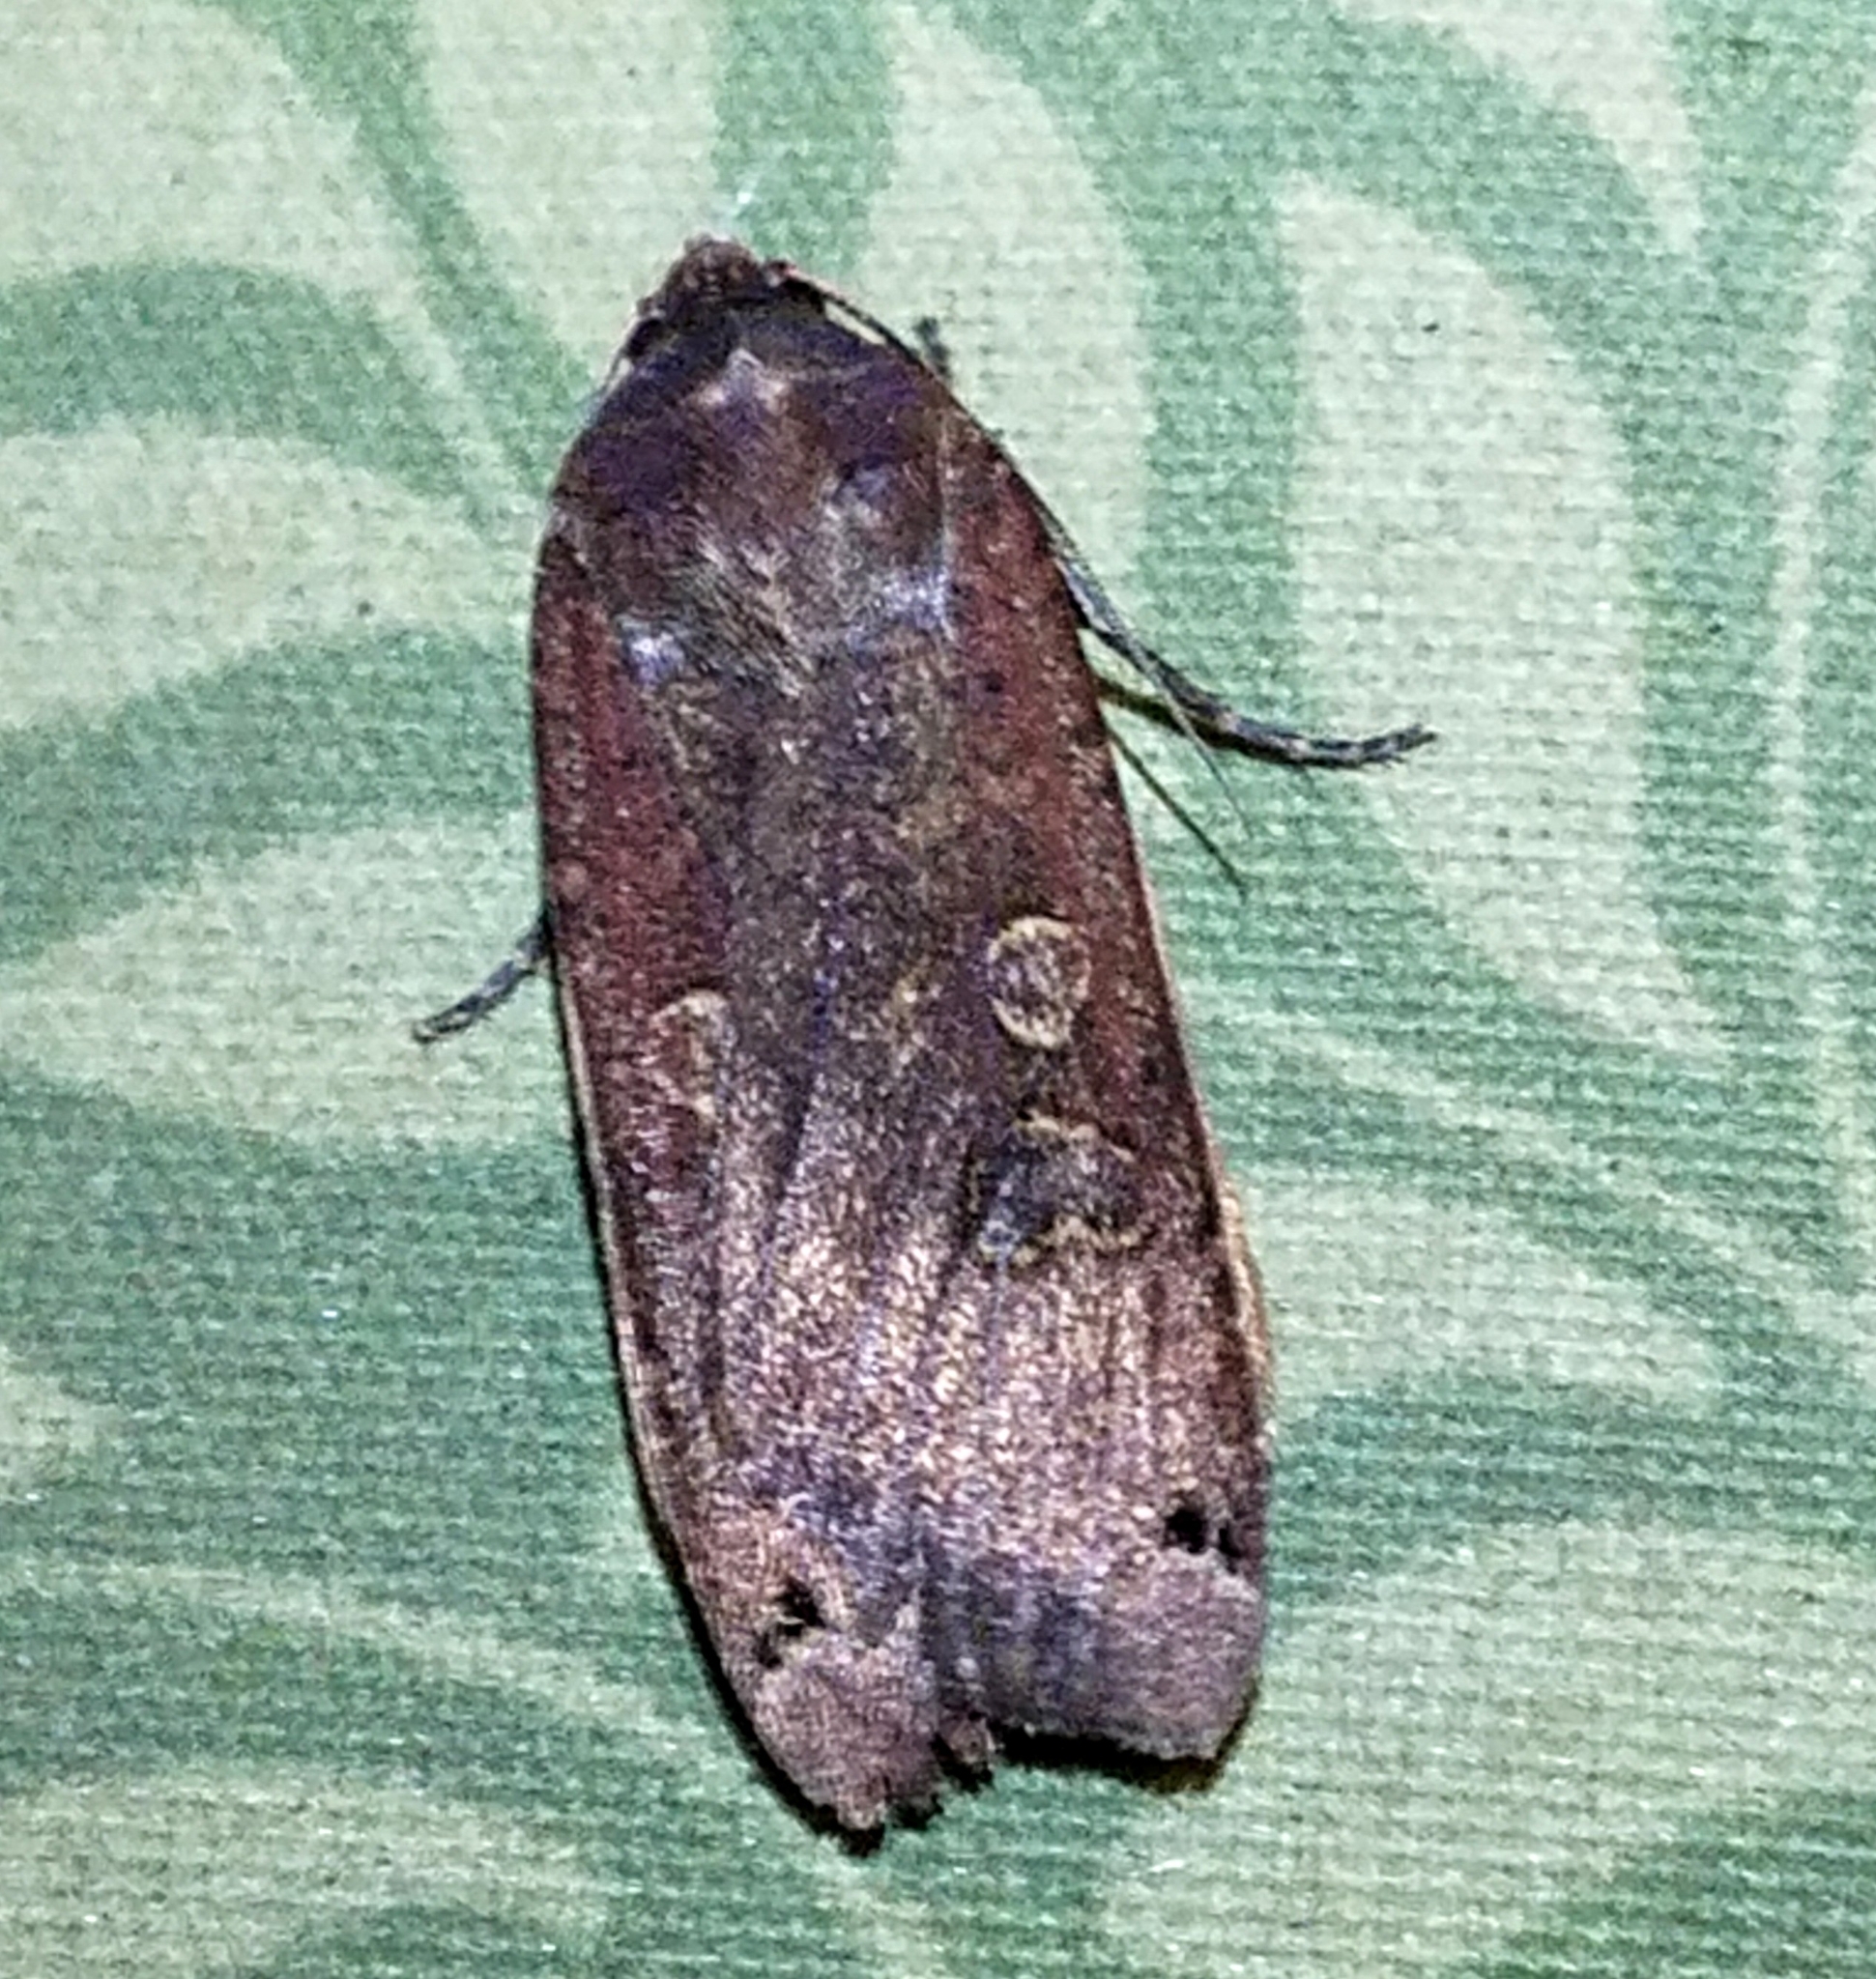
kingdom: Animalia
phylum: Arthropoda
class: Insecta
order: Lepidoptera
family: Noctuidae
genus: Noctua
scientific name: Noctua pronuba
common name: Large yellow underwing
